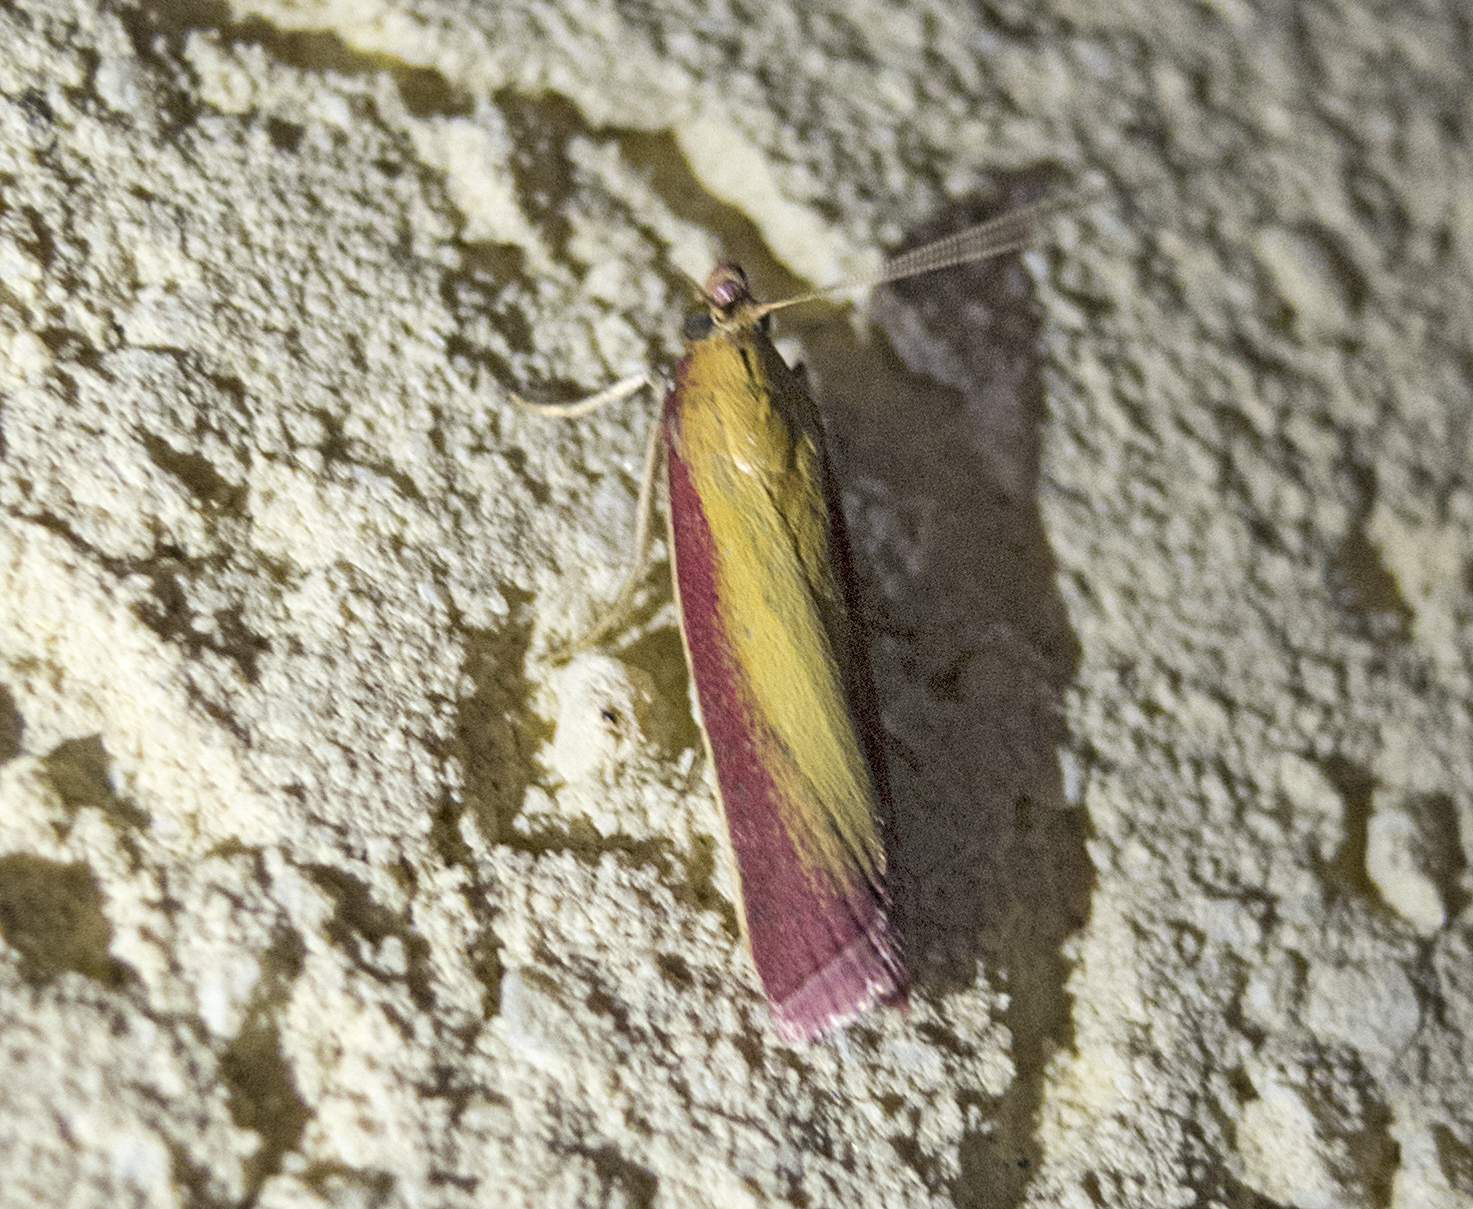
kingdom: Animalia
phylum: Arthropoda
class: Insecta
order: Lepidoptera
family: Pyralidae
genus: Oncocera
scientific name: Oncocera semirubella
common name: Rosy-striped knot-horn
